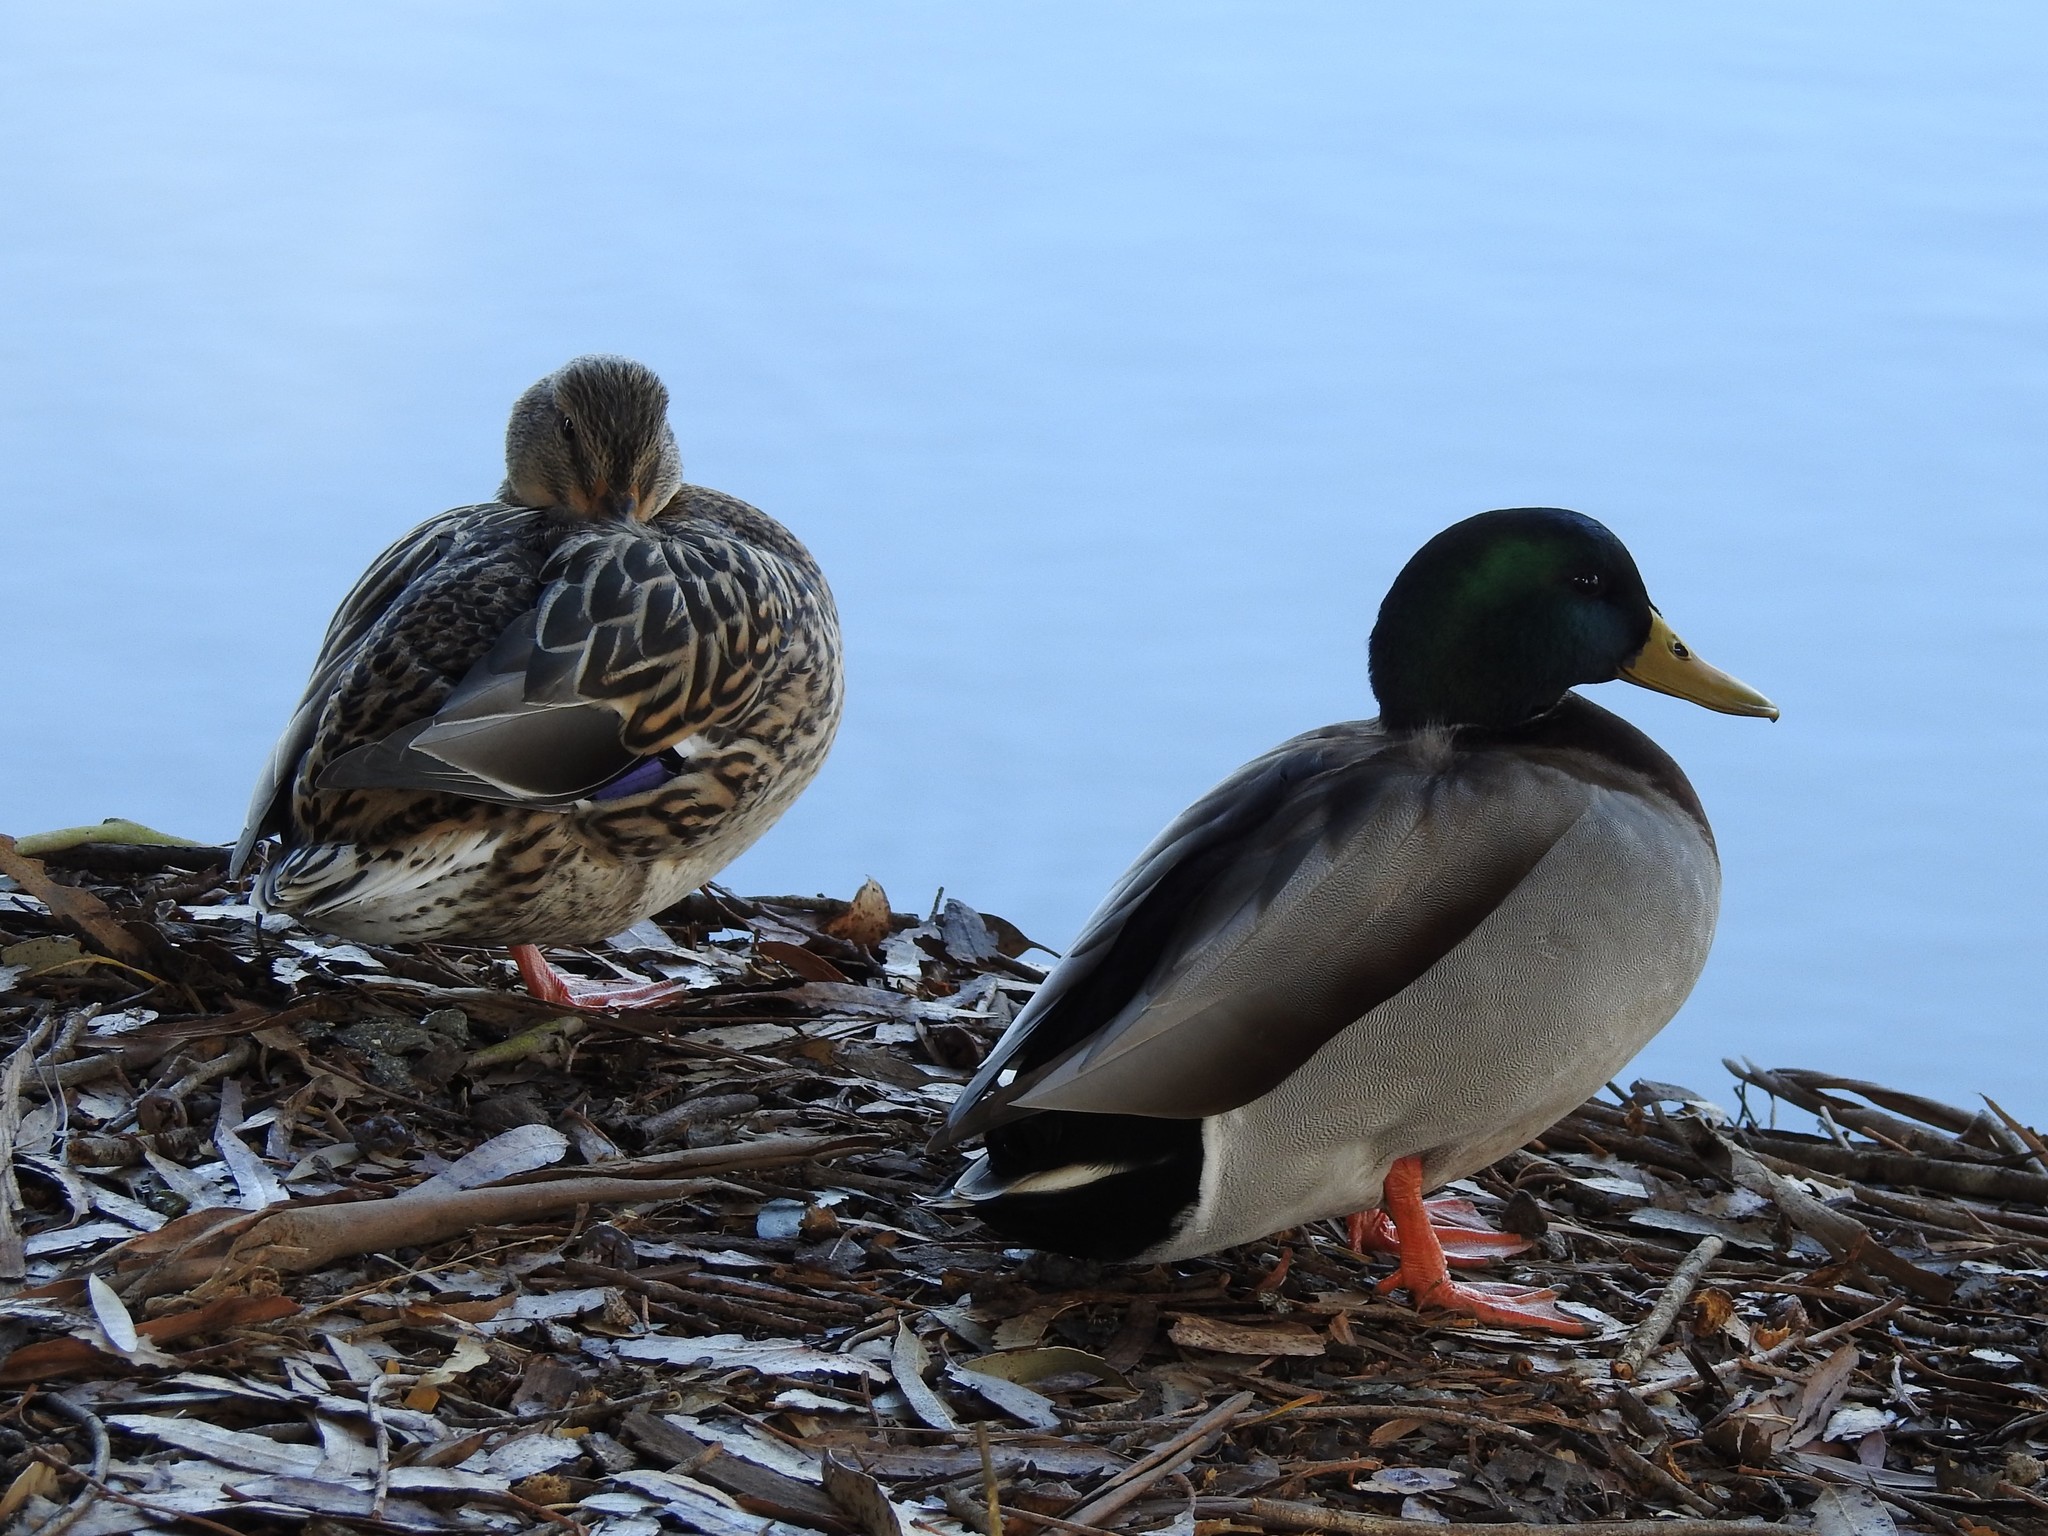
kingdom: Animalia
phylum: Chordata
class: Aves
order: Anseriformes
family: Anatidae
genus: Anas
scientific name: Anas platyrhynchos
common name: Mallard
